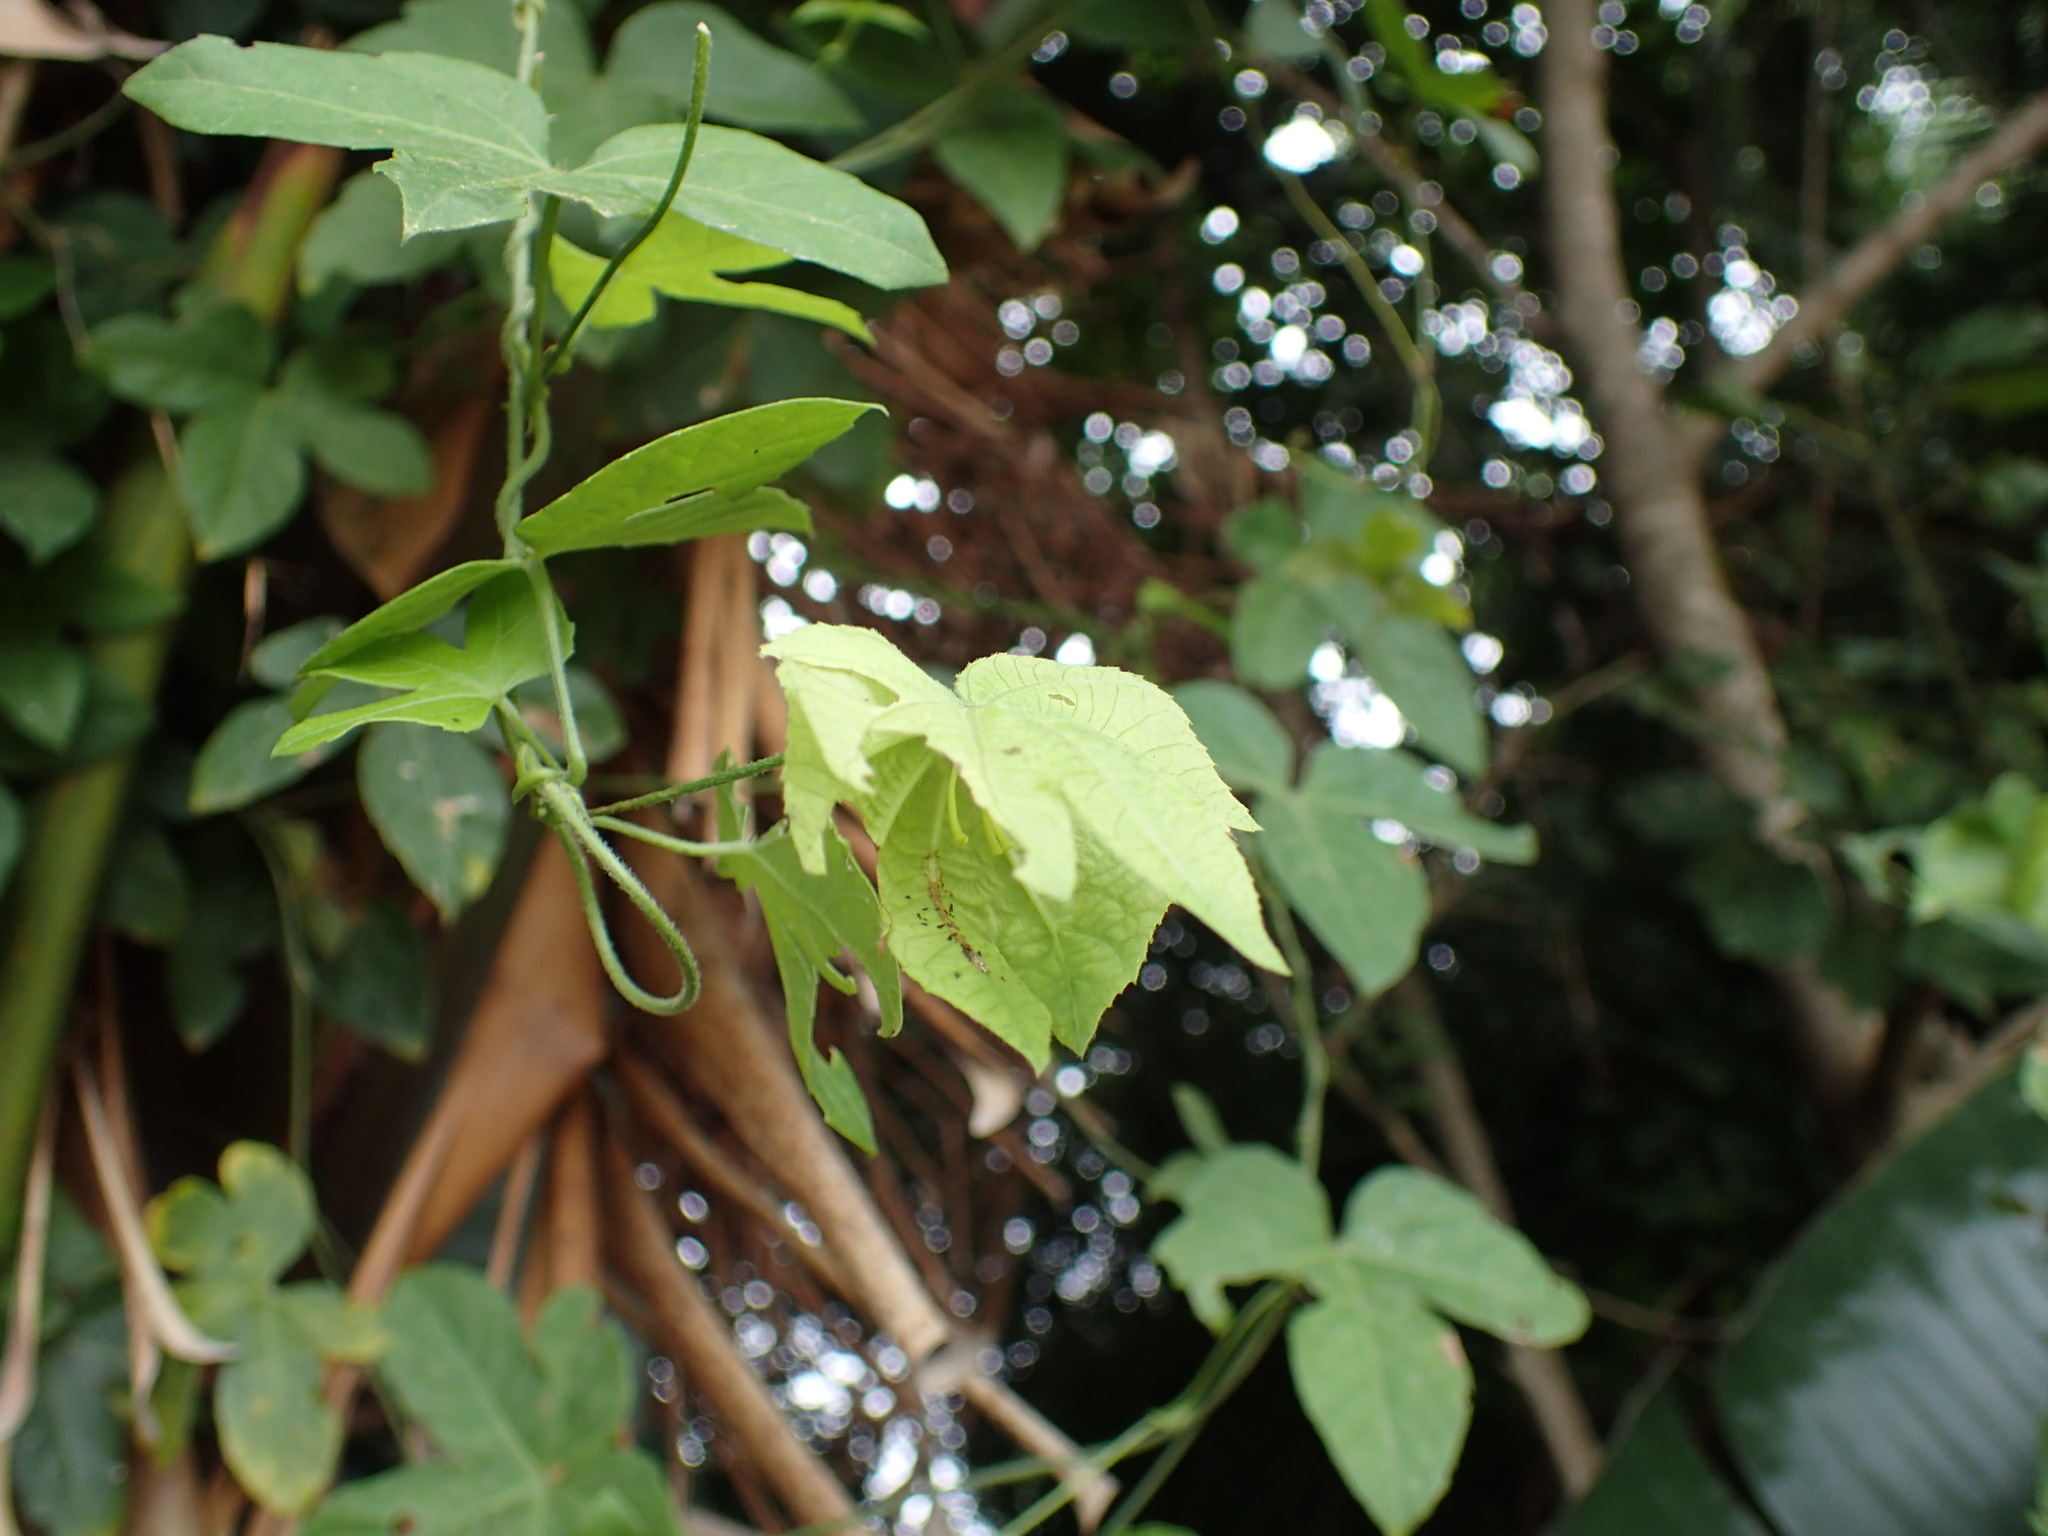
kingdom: Plantae
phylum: Tracheophyta
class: Magnoliopsida
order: Malpighiales
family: Euphorbiaceae
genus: Dalechampia
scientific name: Dalechampia capensis
